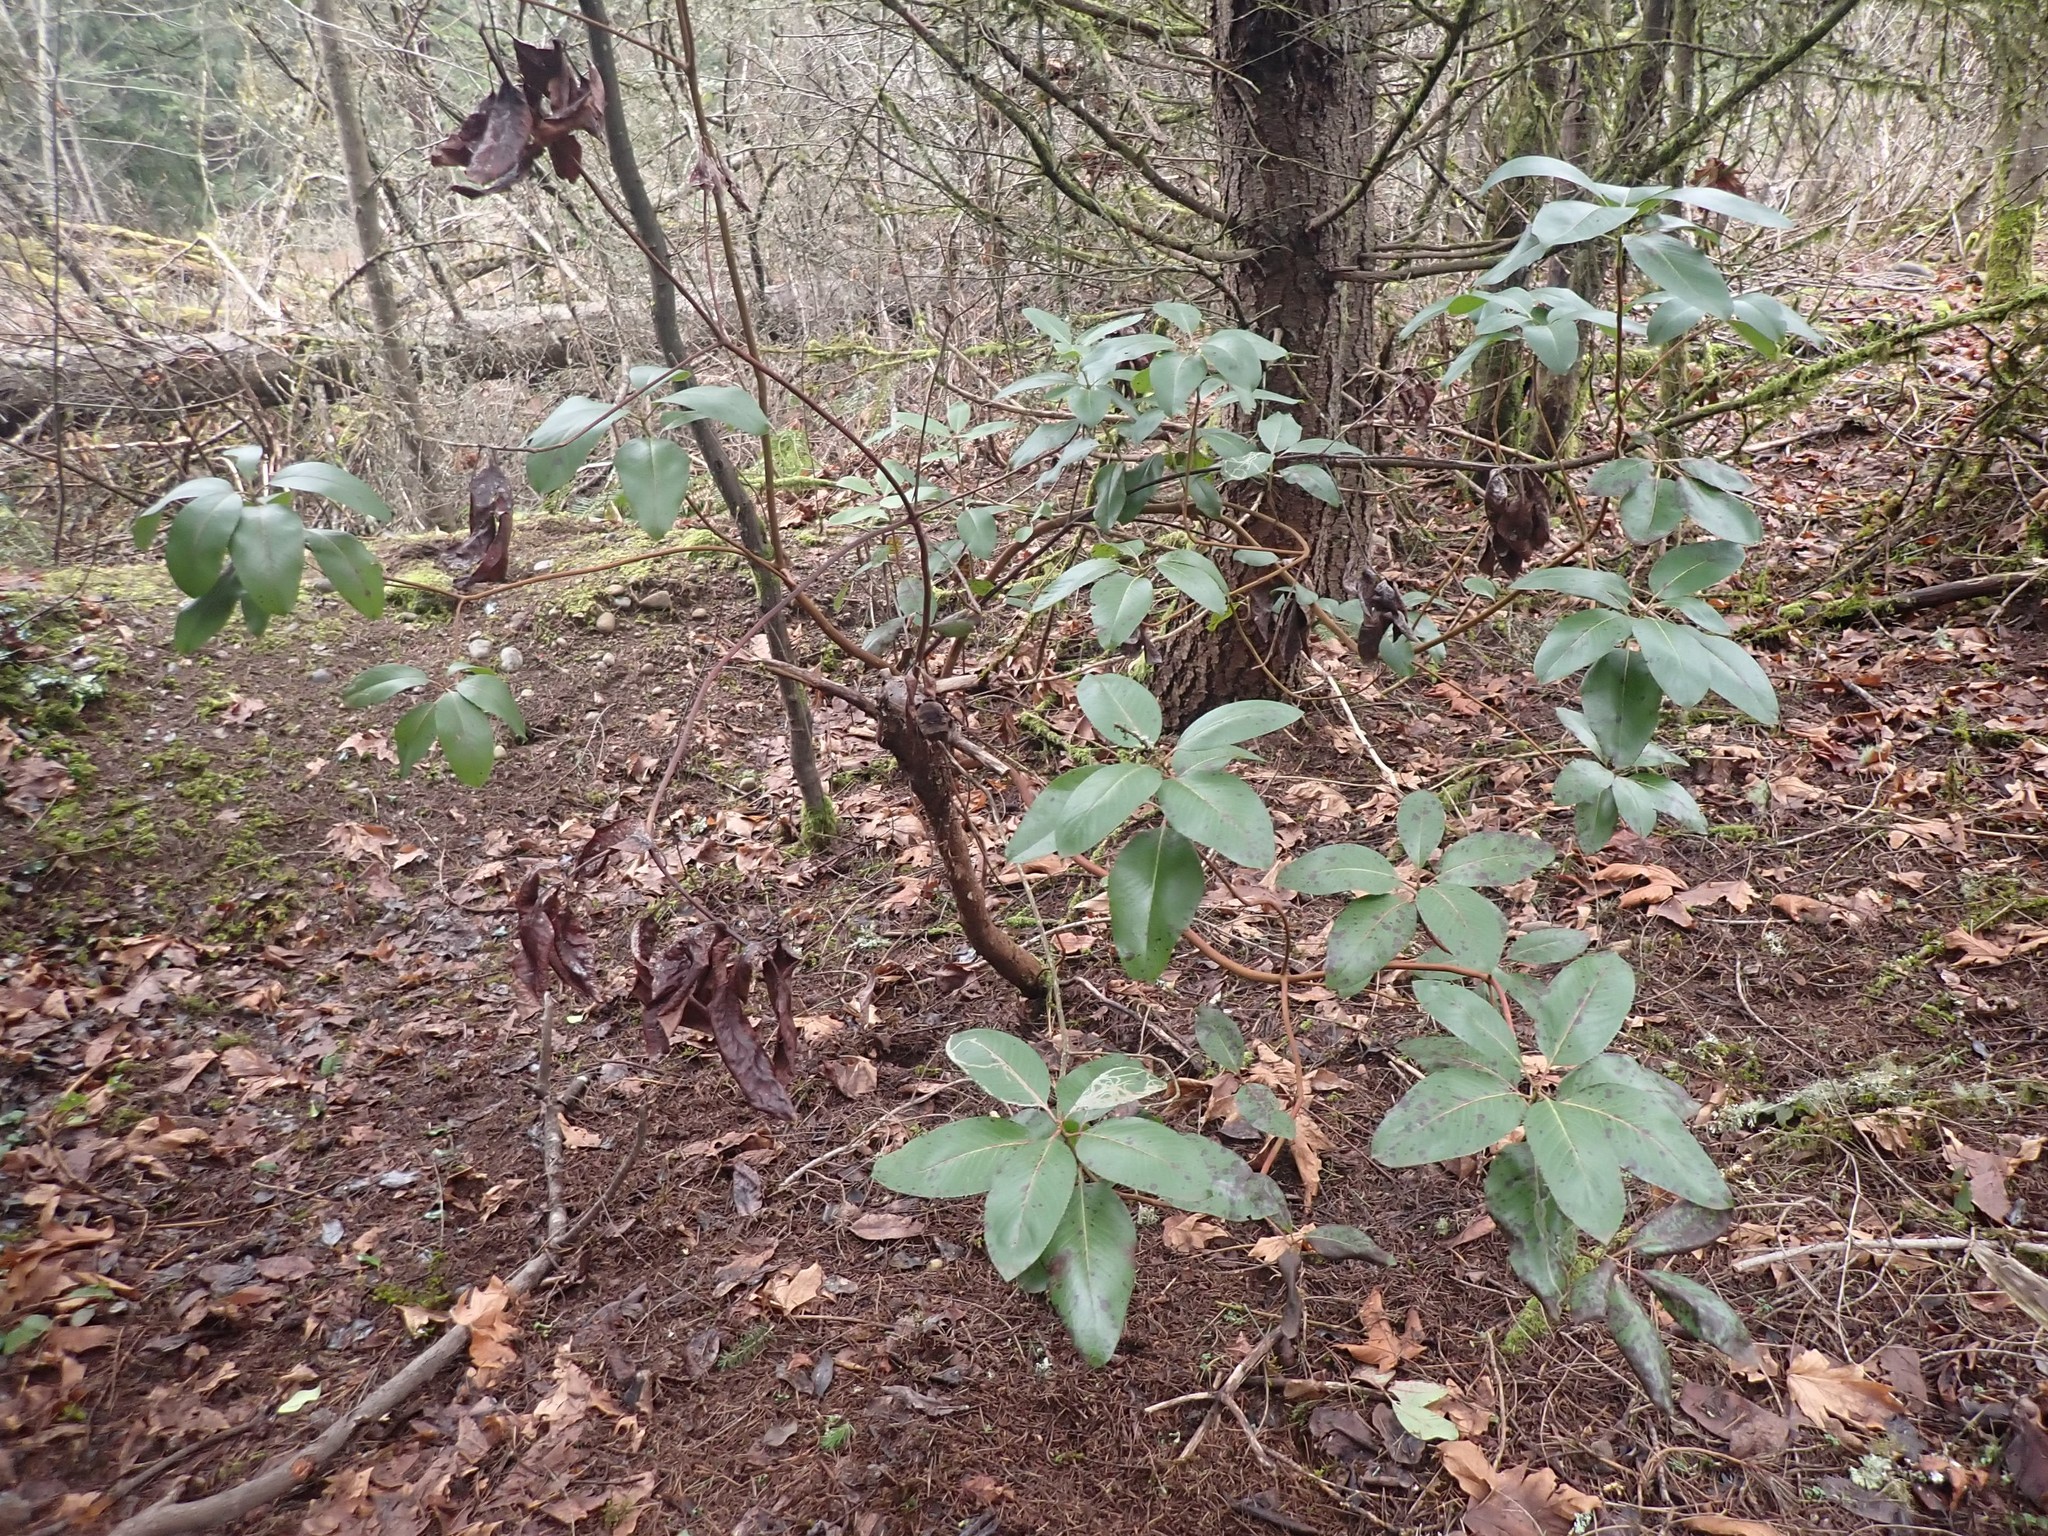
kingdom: Plantae
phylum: Tracheophyta
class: Magnoliopsida
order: Ericales
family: Ericaceae
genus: Arbutus
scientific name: Arbutus menziesii
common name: Pacific madrone
